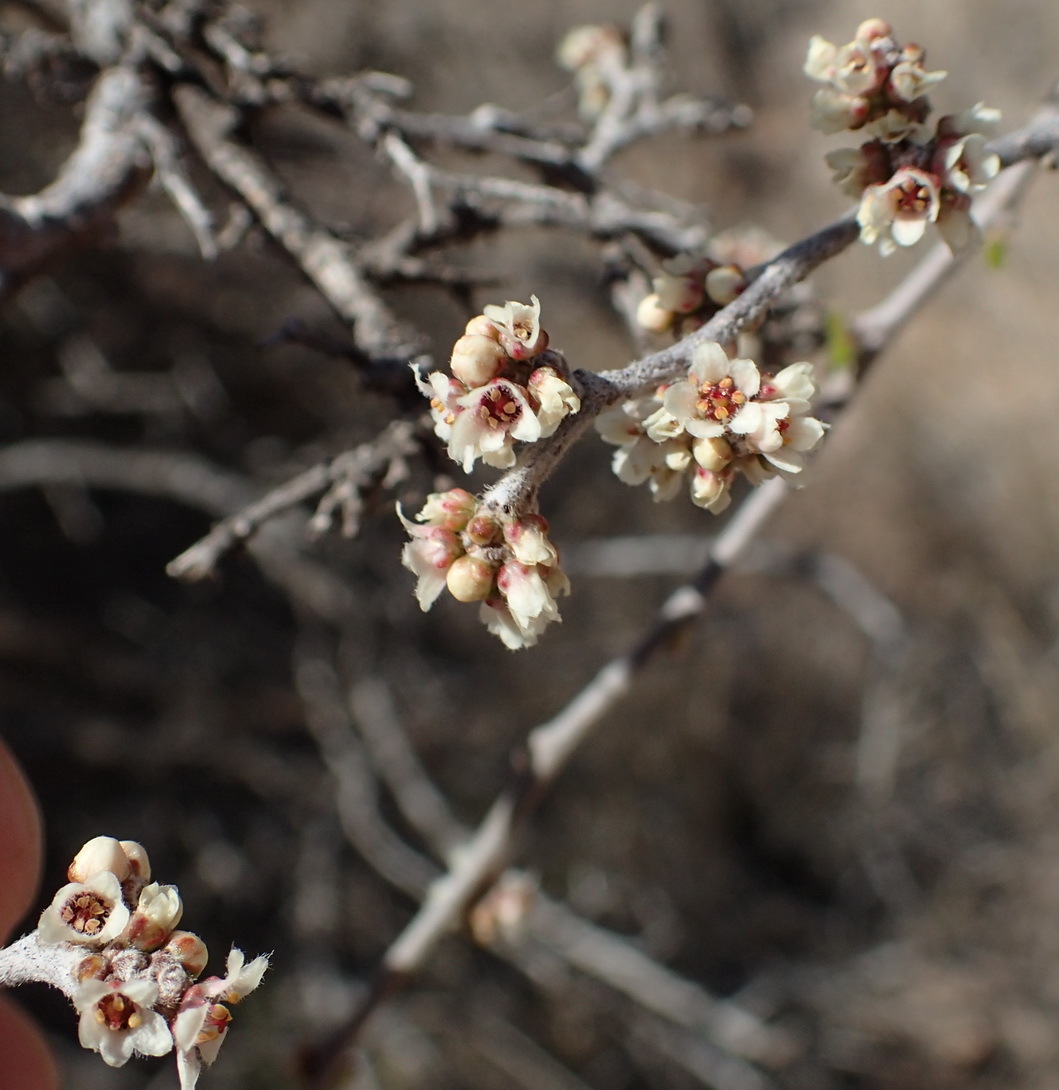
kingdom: Plantae
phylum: Tracheophyta
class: Magnoliopsida
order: Sapindales
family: Anacardiaceae
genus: Rhus
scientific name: Rhus microphylla
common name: Desert sumac
